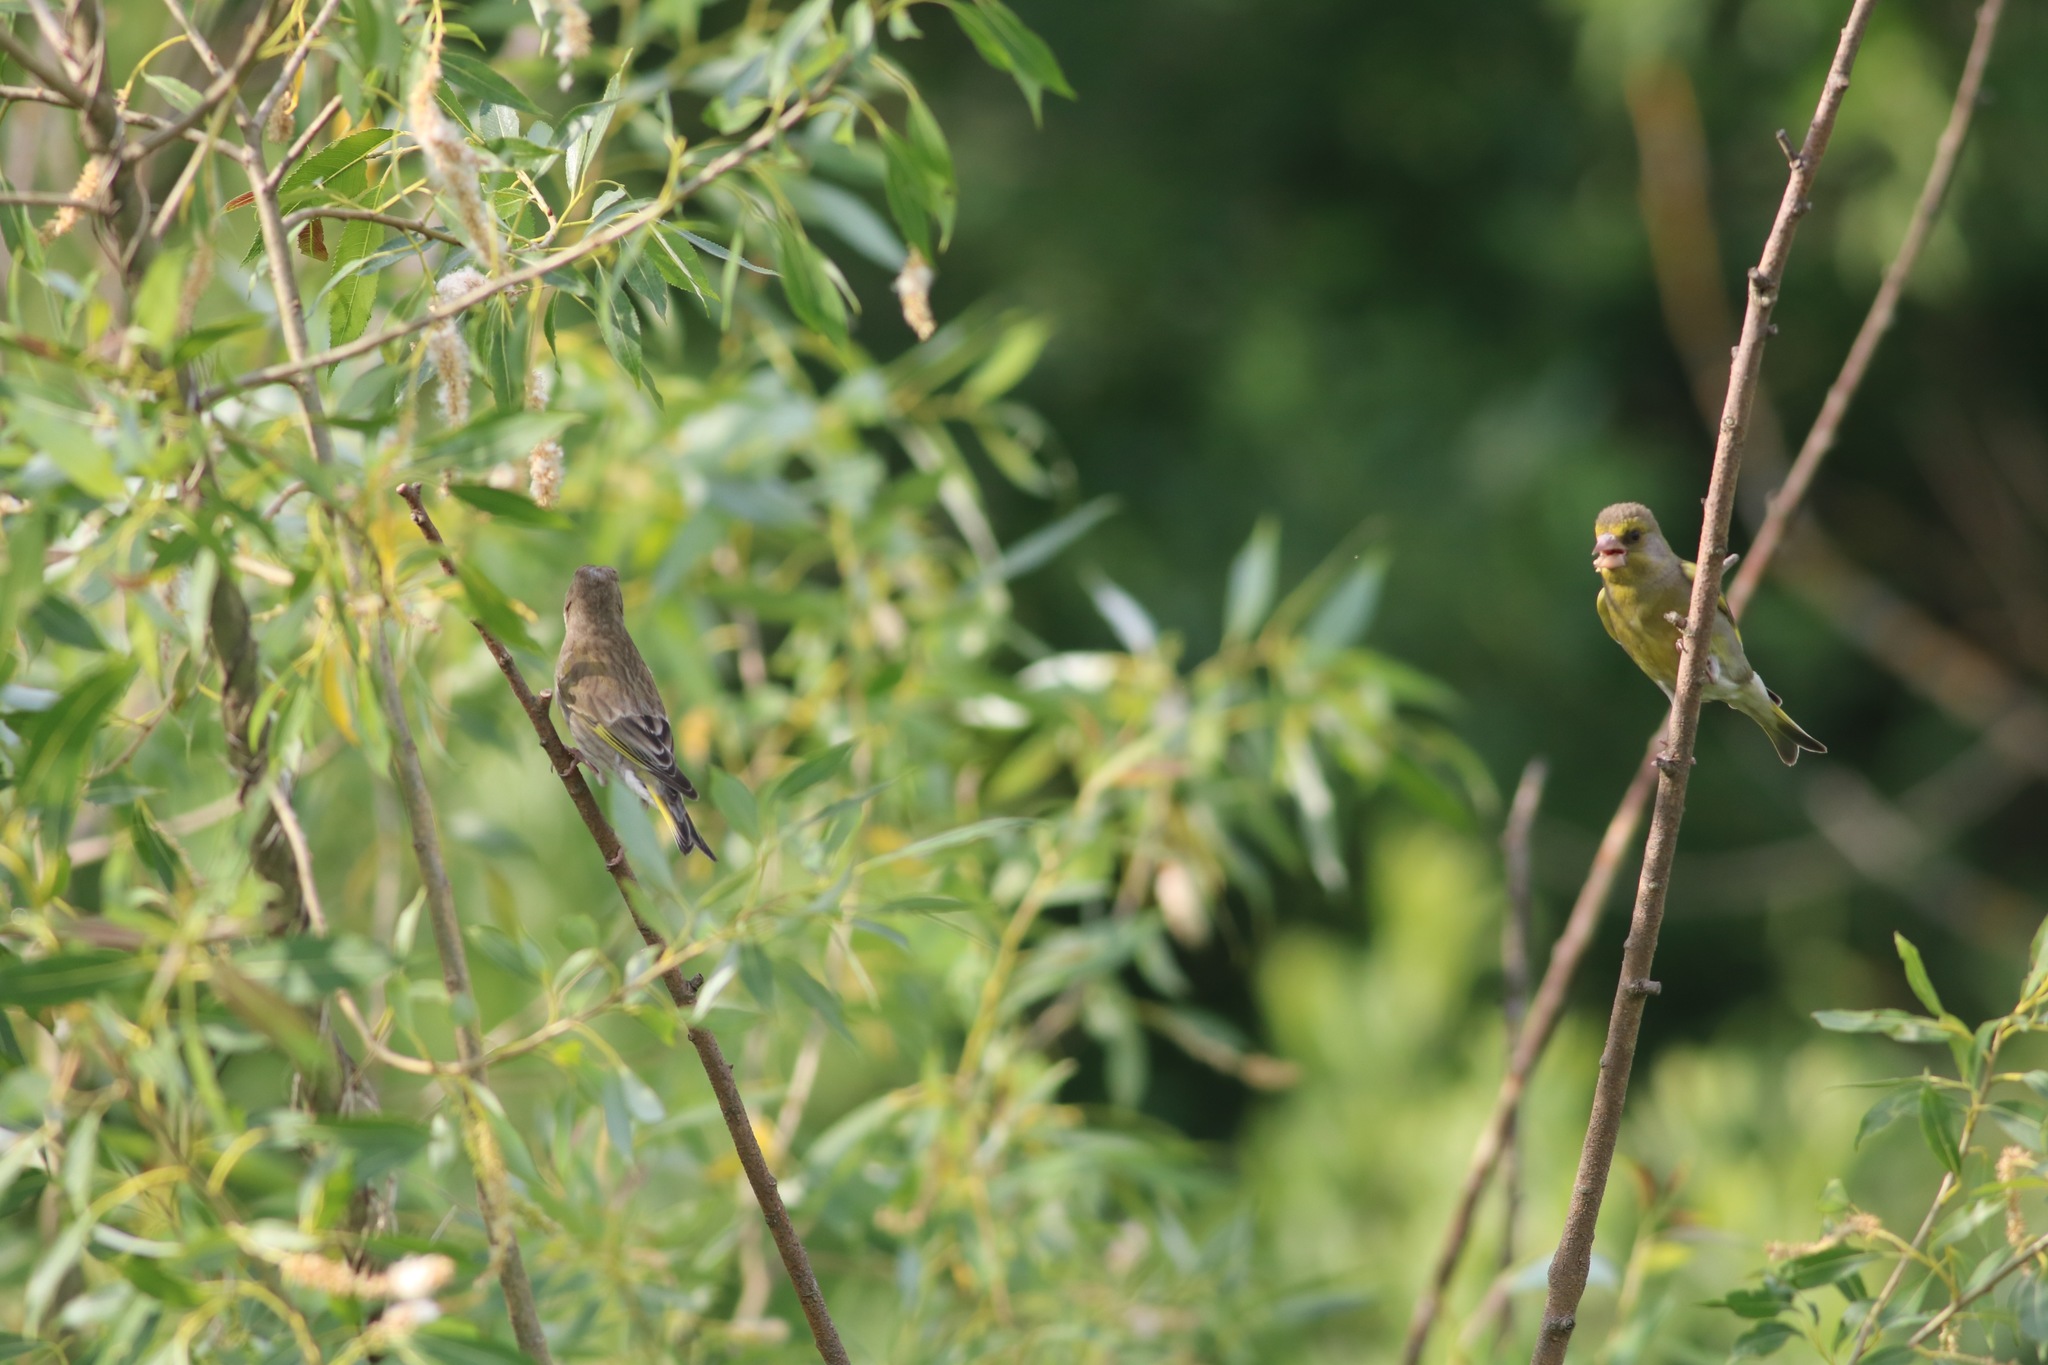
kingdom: Plantae
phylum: Tracheophyta
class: Liliopsida
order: Poales
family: Poaceae
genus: Chloris
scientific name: Chloris chloris
